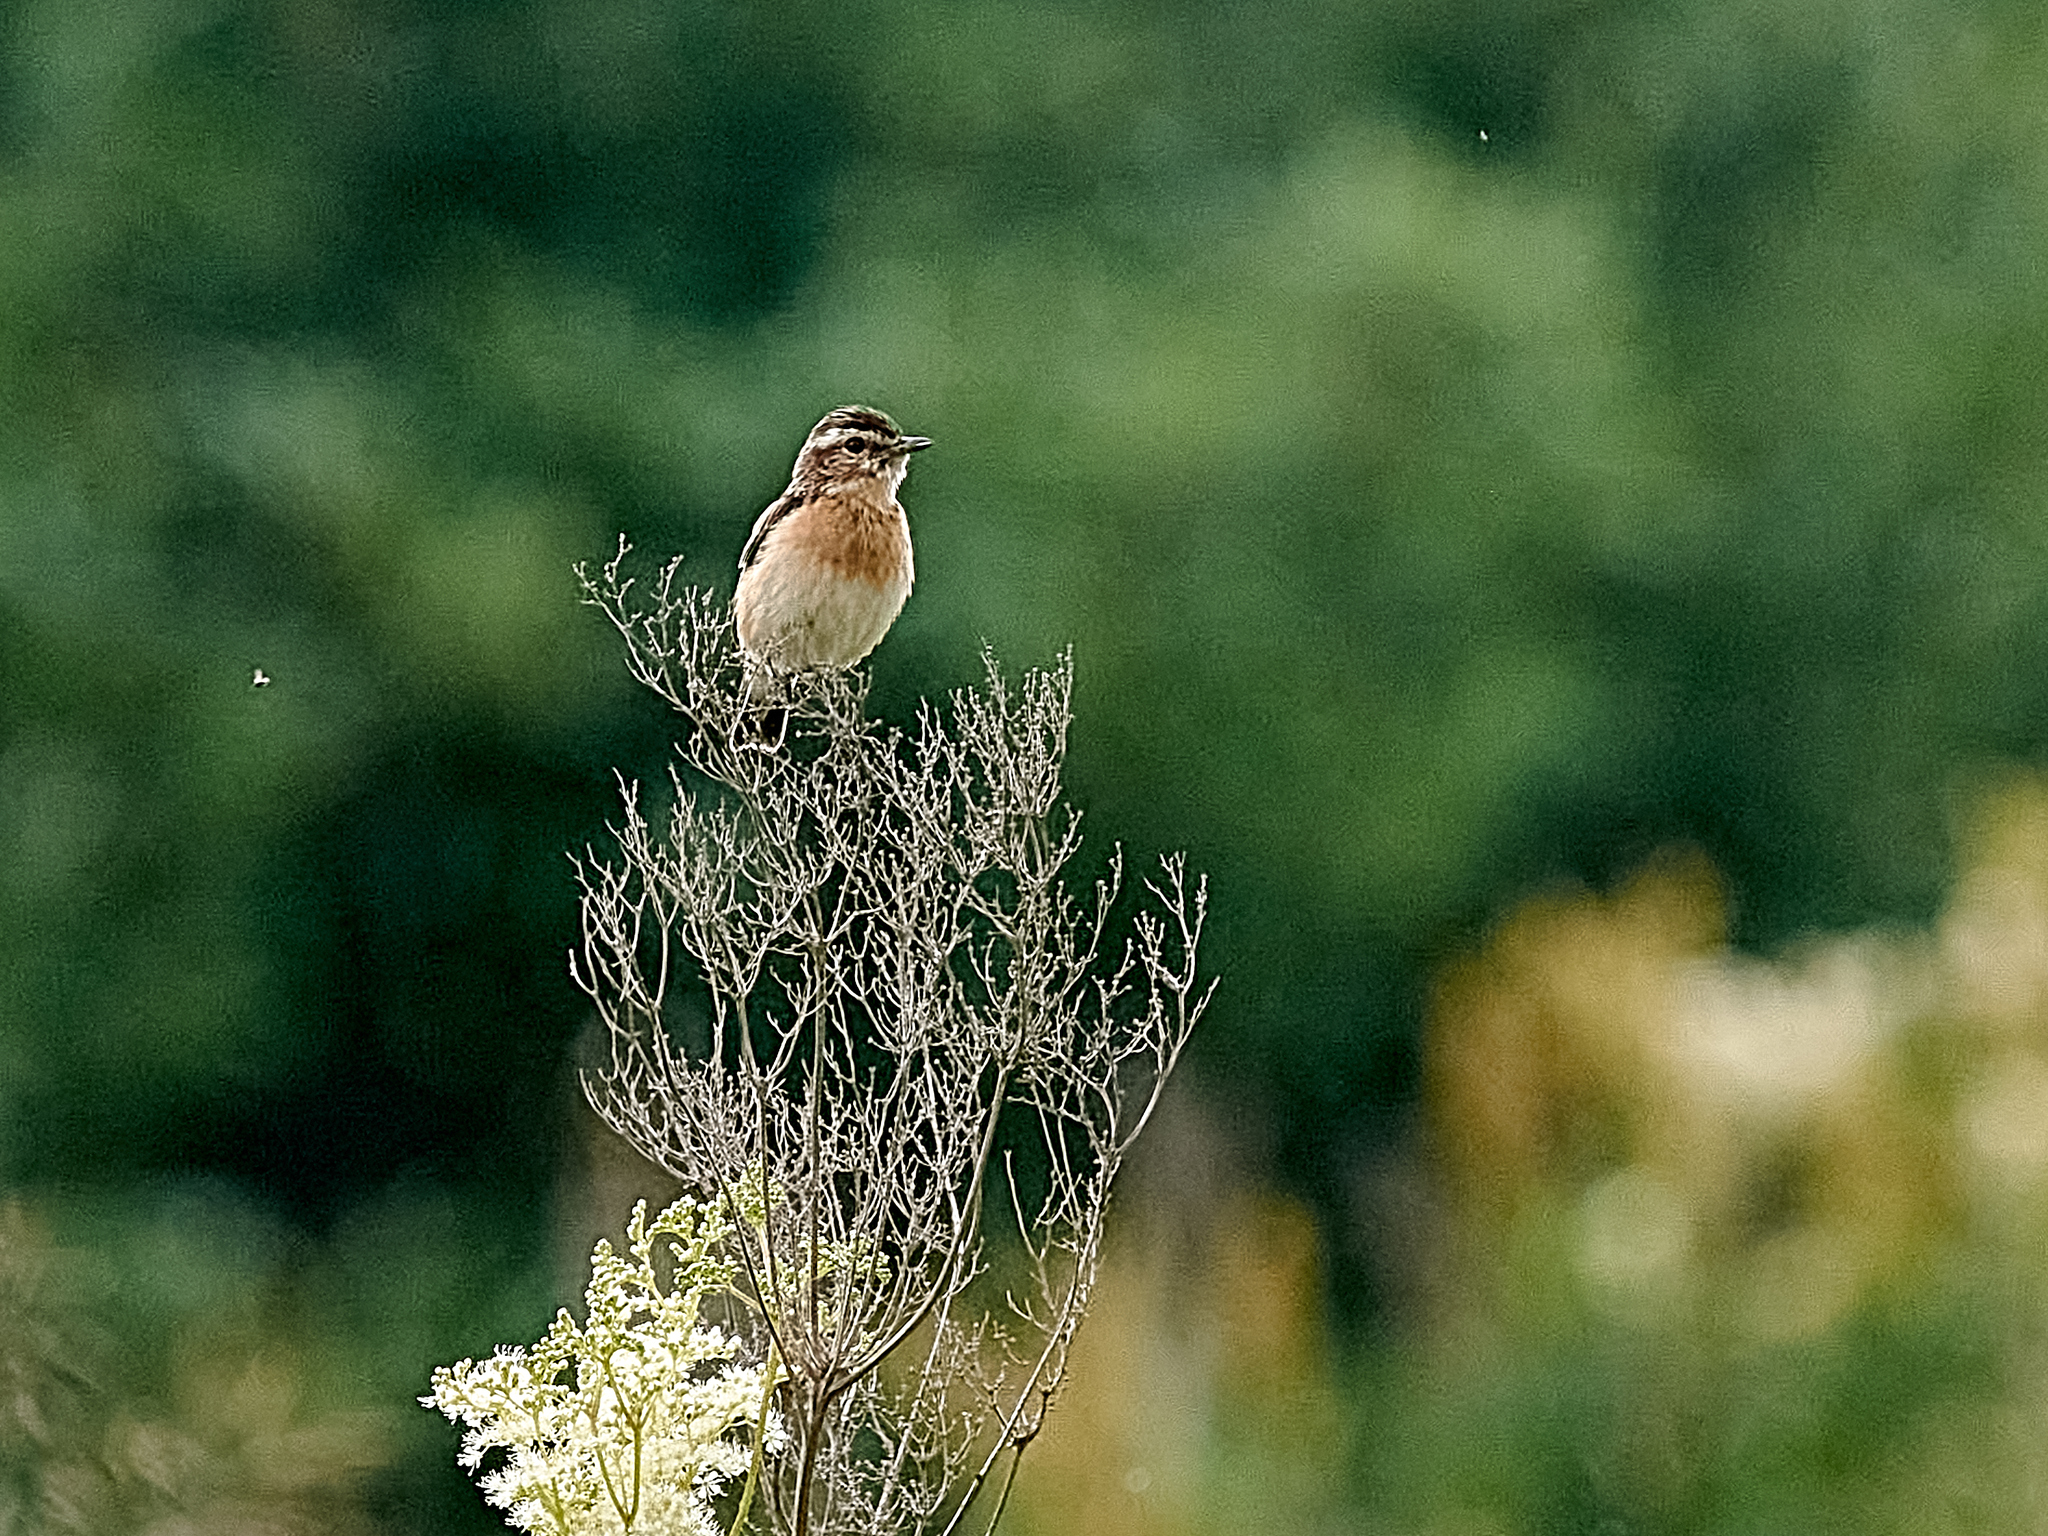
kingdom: Animalia
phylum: Chordata
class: Aves
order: Passeriformes
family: Muscicapidae
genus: Saxicola
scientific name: Saxicola rubetra
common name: Whinchat
